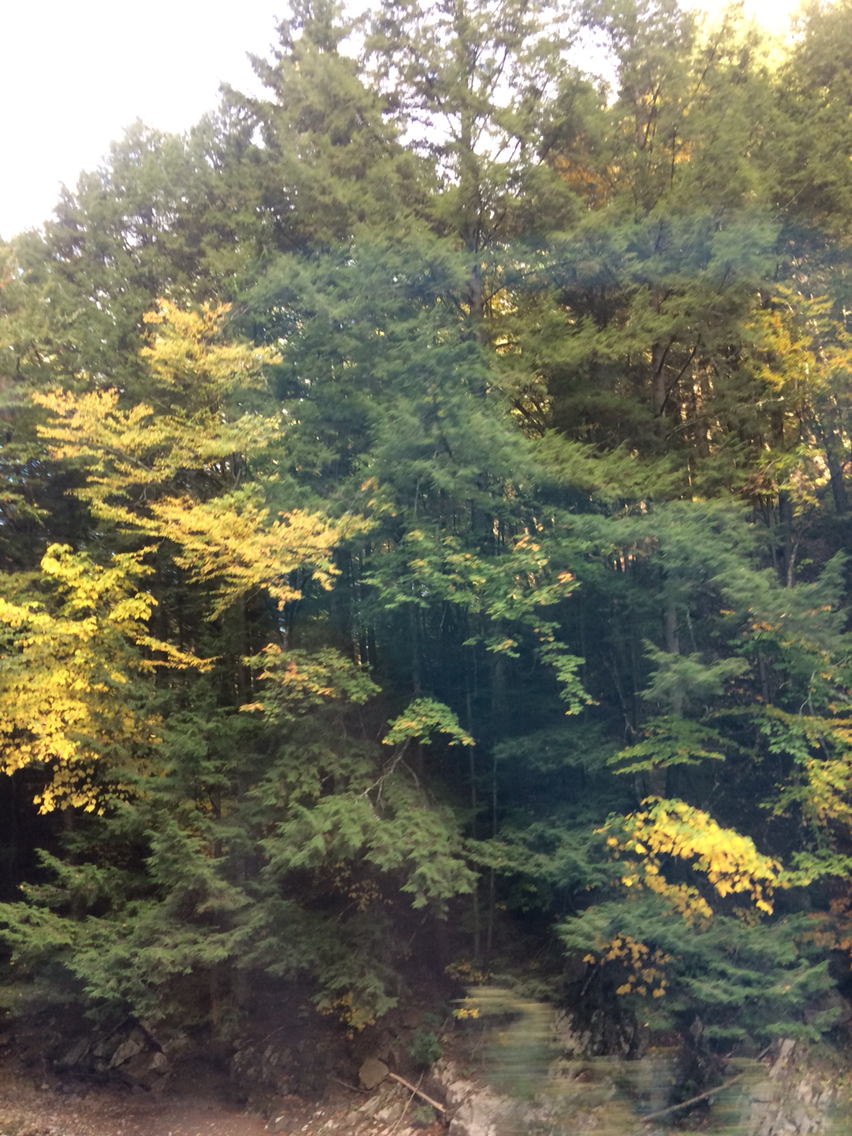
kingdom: Plantae
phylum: Tracheophyta
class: Pinopsida
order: Pinales
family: Pinaceae
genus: Tsuga
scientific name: Tsuga canadensis
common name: Eastern hemlock
